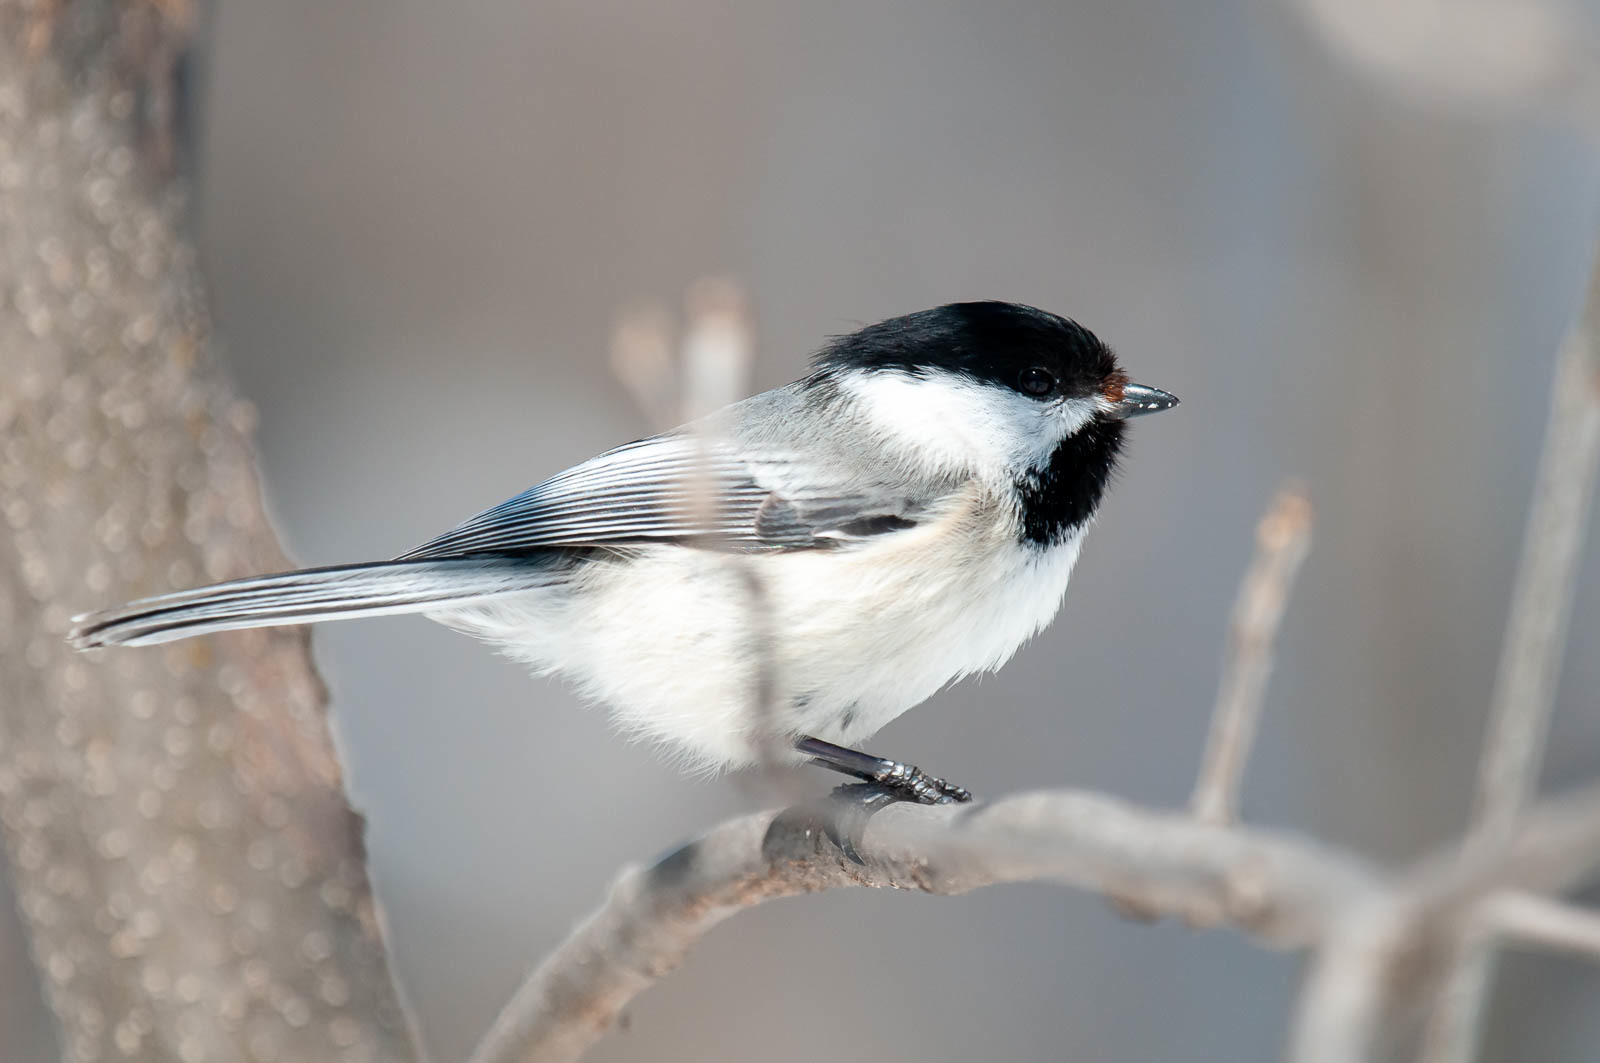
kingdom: Animalia
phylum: Chordata
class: Aves
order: Passeriformes
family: Paridae
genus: Poecile
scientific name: Poecile atricapillus
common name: Black-capped chickadee
